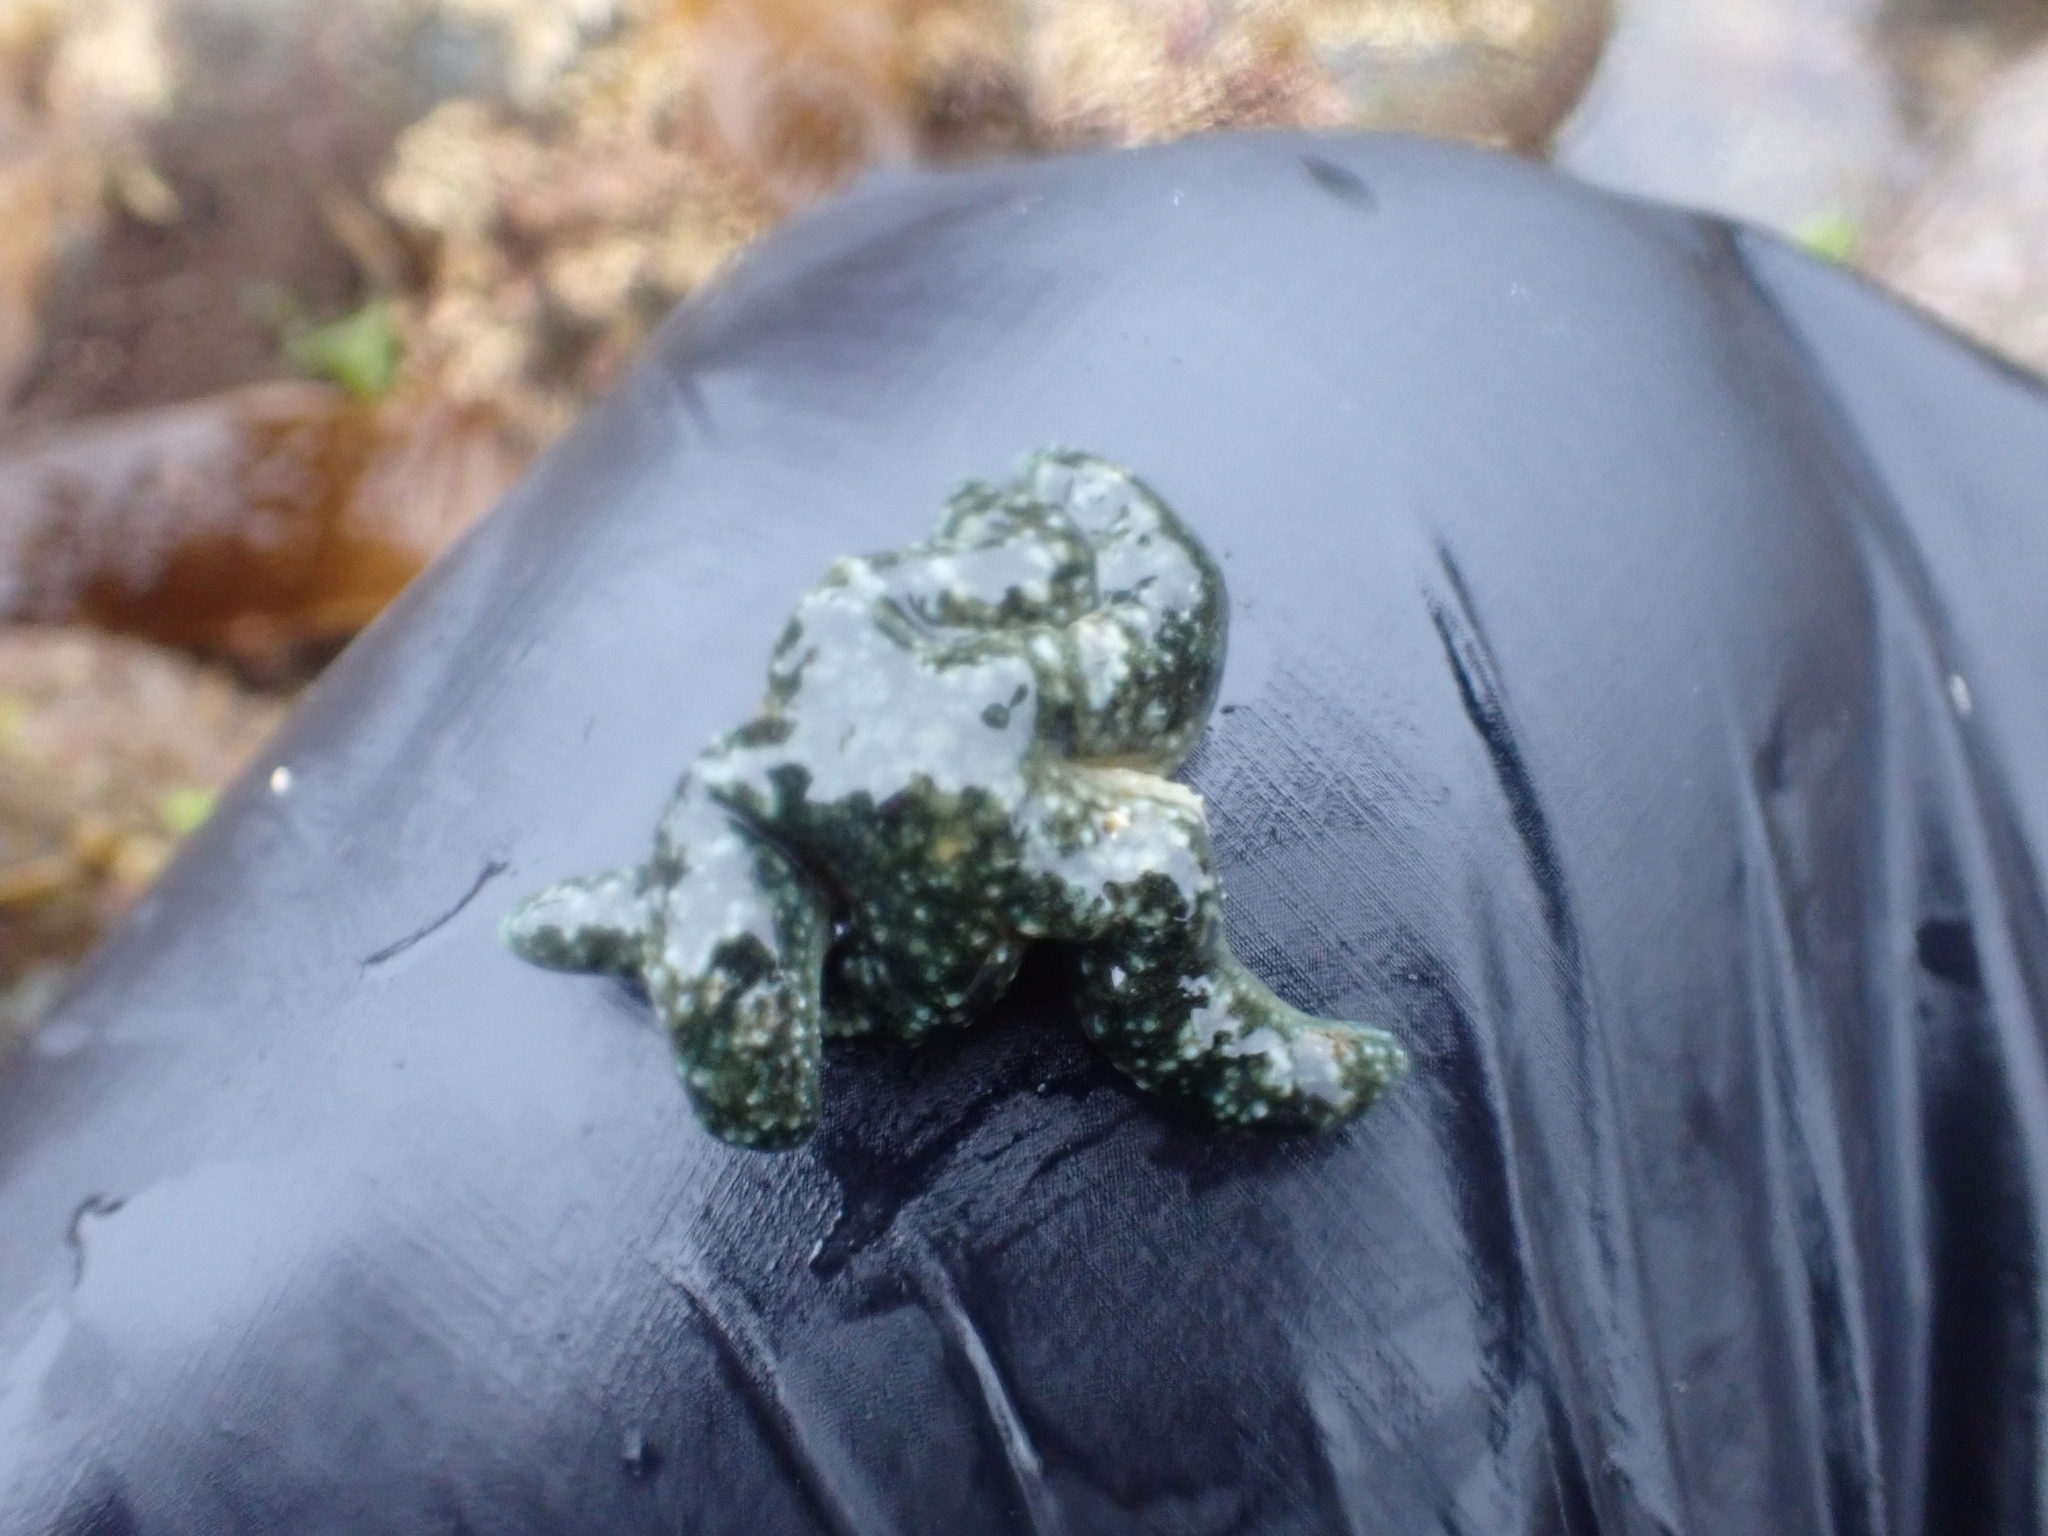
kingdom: Animalia
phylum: Echinodermata
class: Asteroidea
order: Forcipulatida
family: Asteriidae
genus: Evasterias
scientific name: Evasterias troschelii
